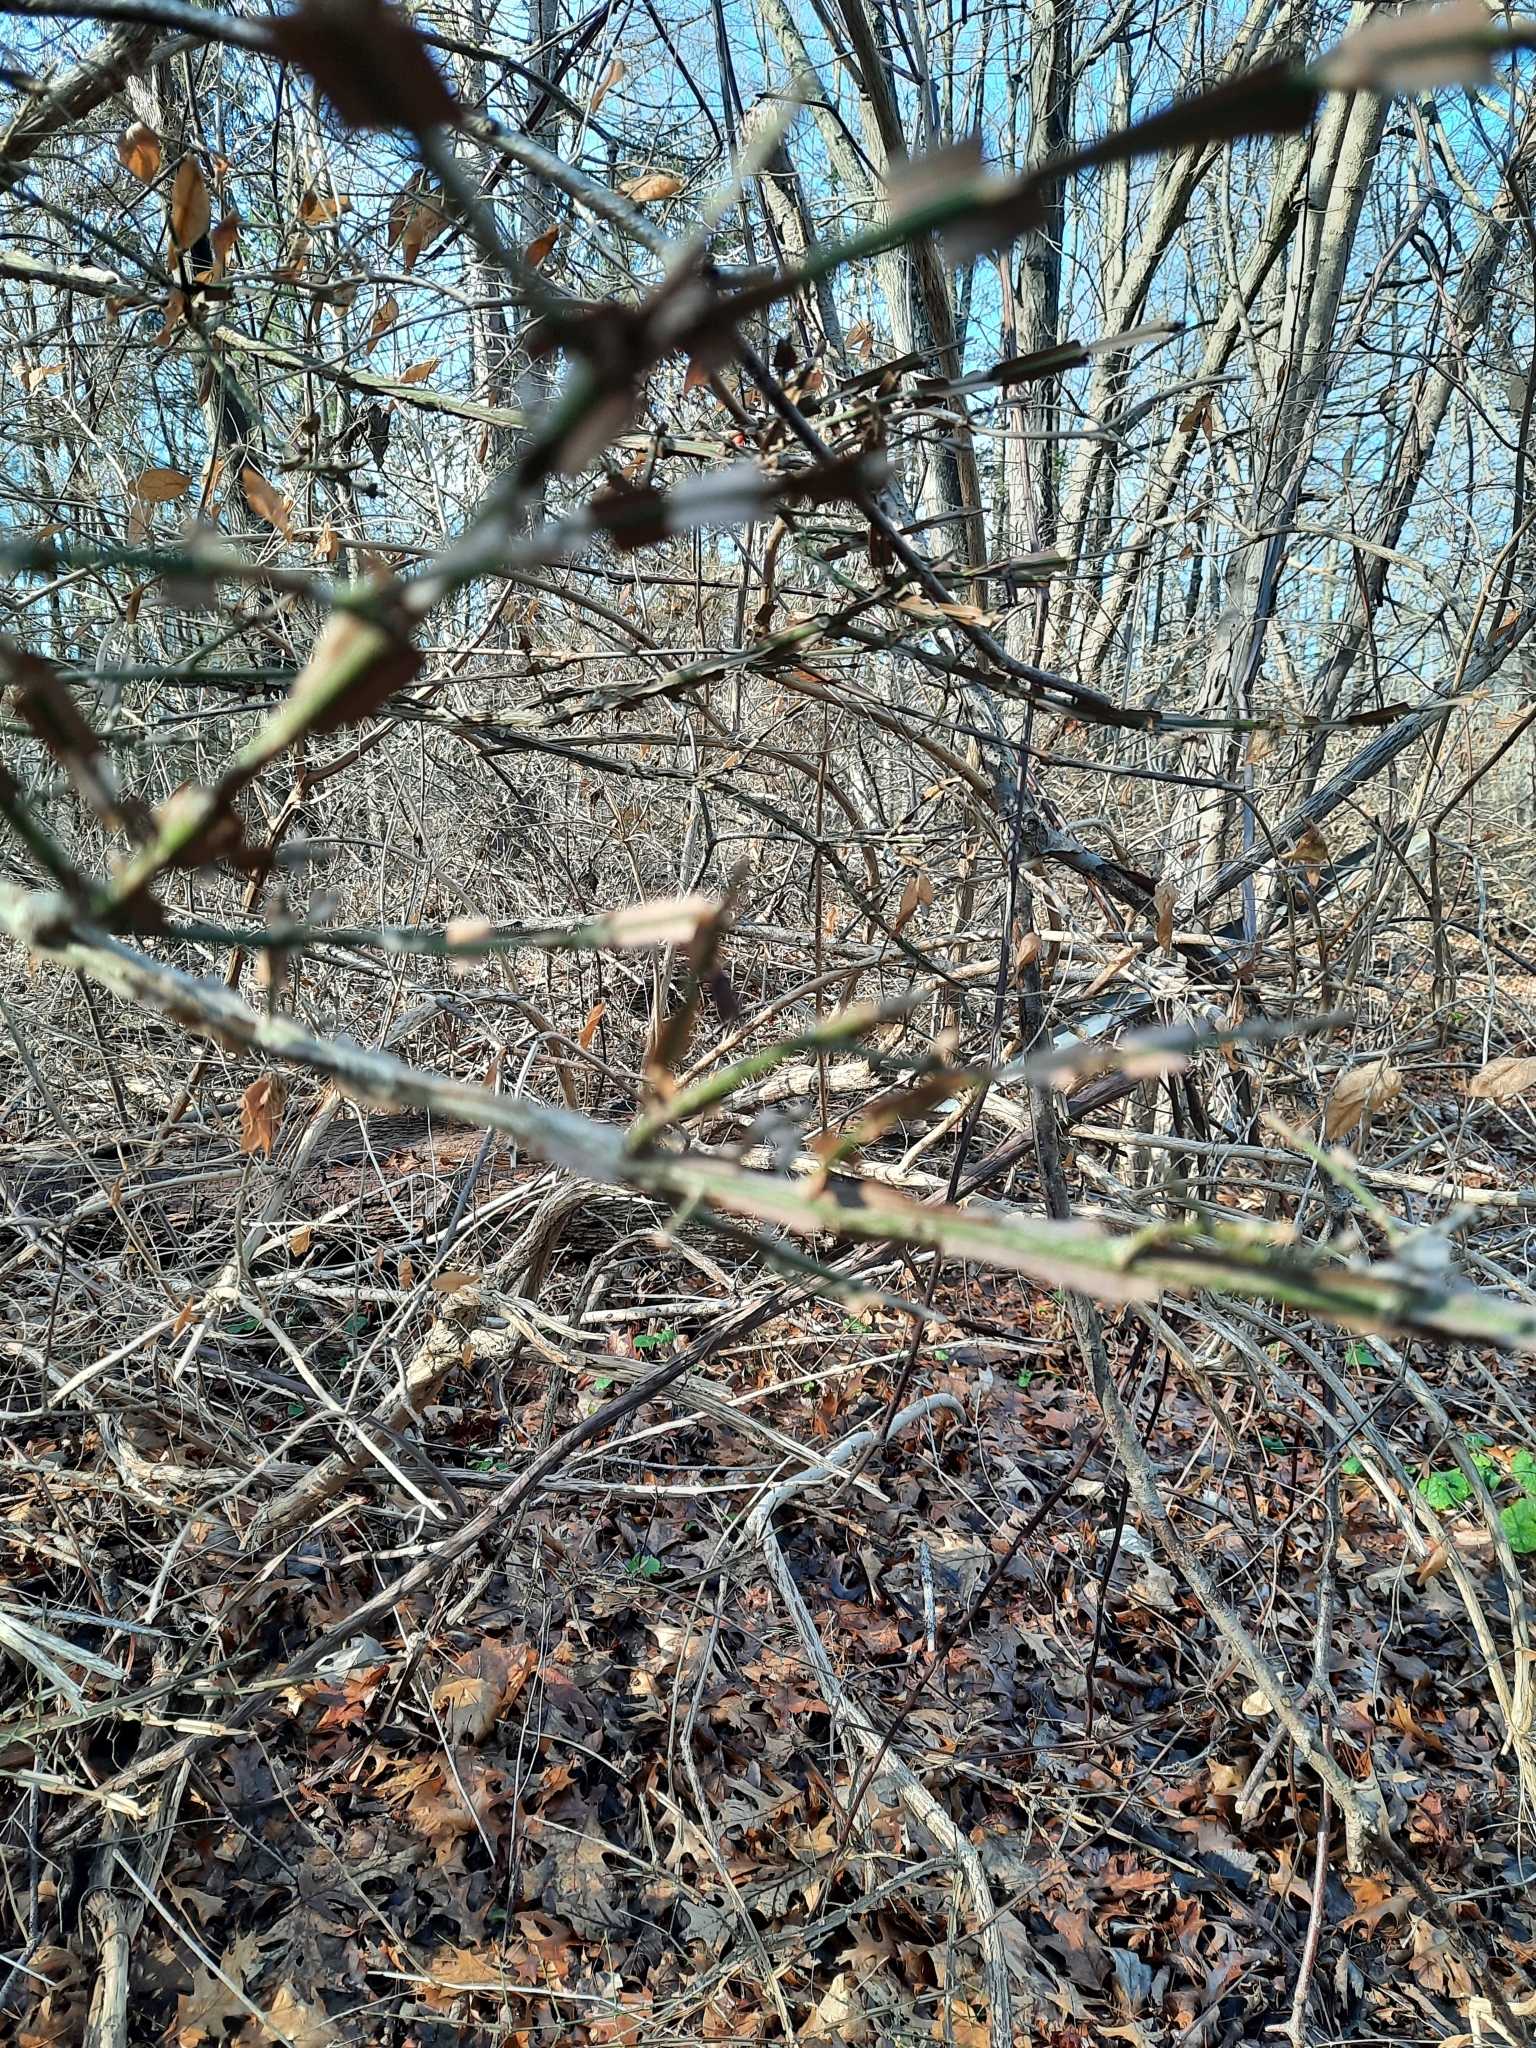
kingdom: Plantae
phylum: Tracheophyta
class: Magnoliopsida
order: Celastrales
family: Celastraceae
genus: Euonymus
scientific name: Euonymus alatus
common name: Winged euonymus
